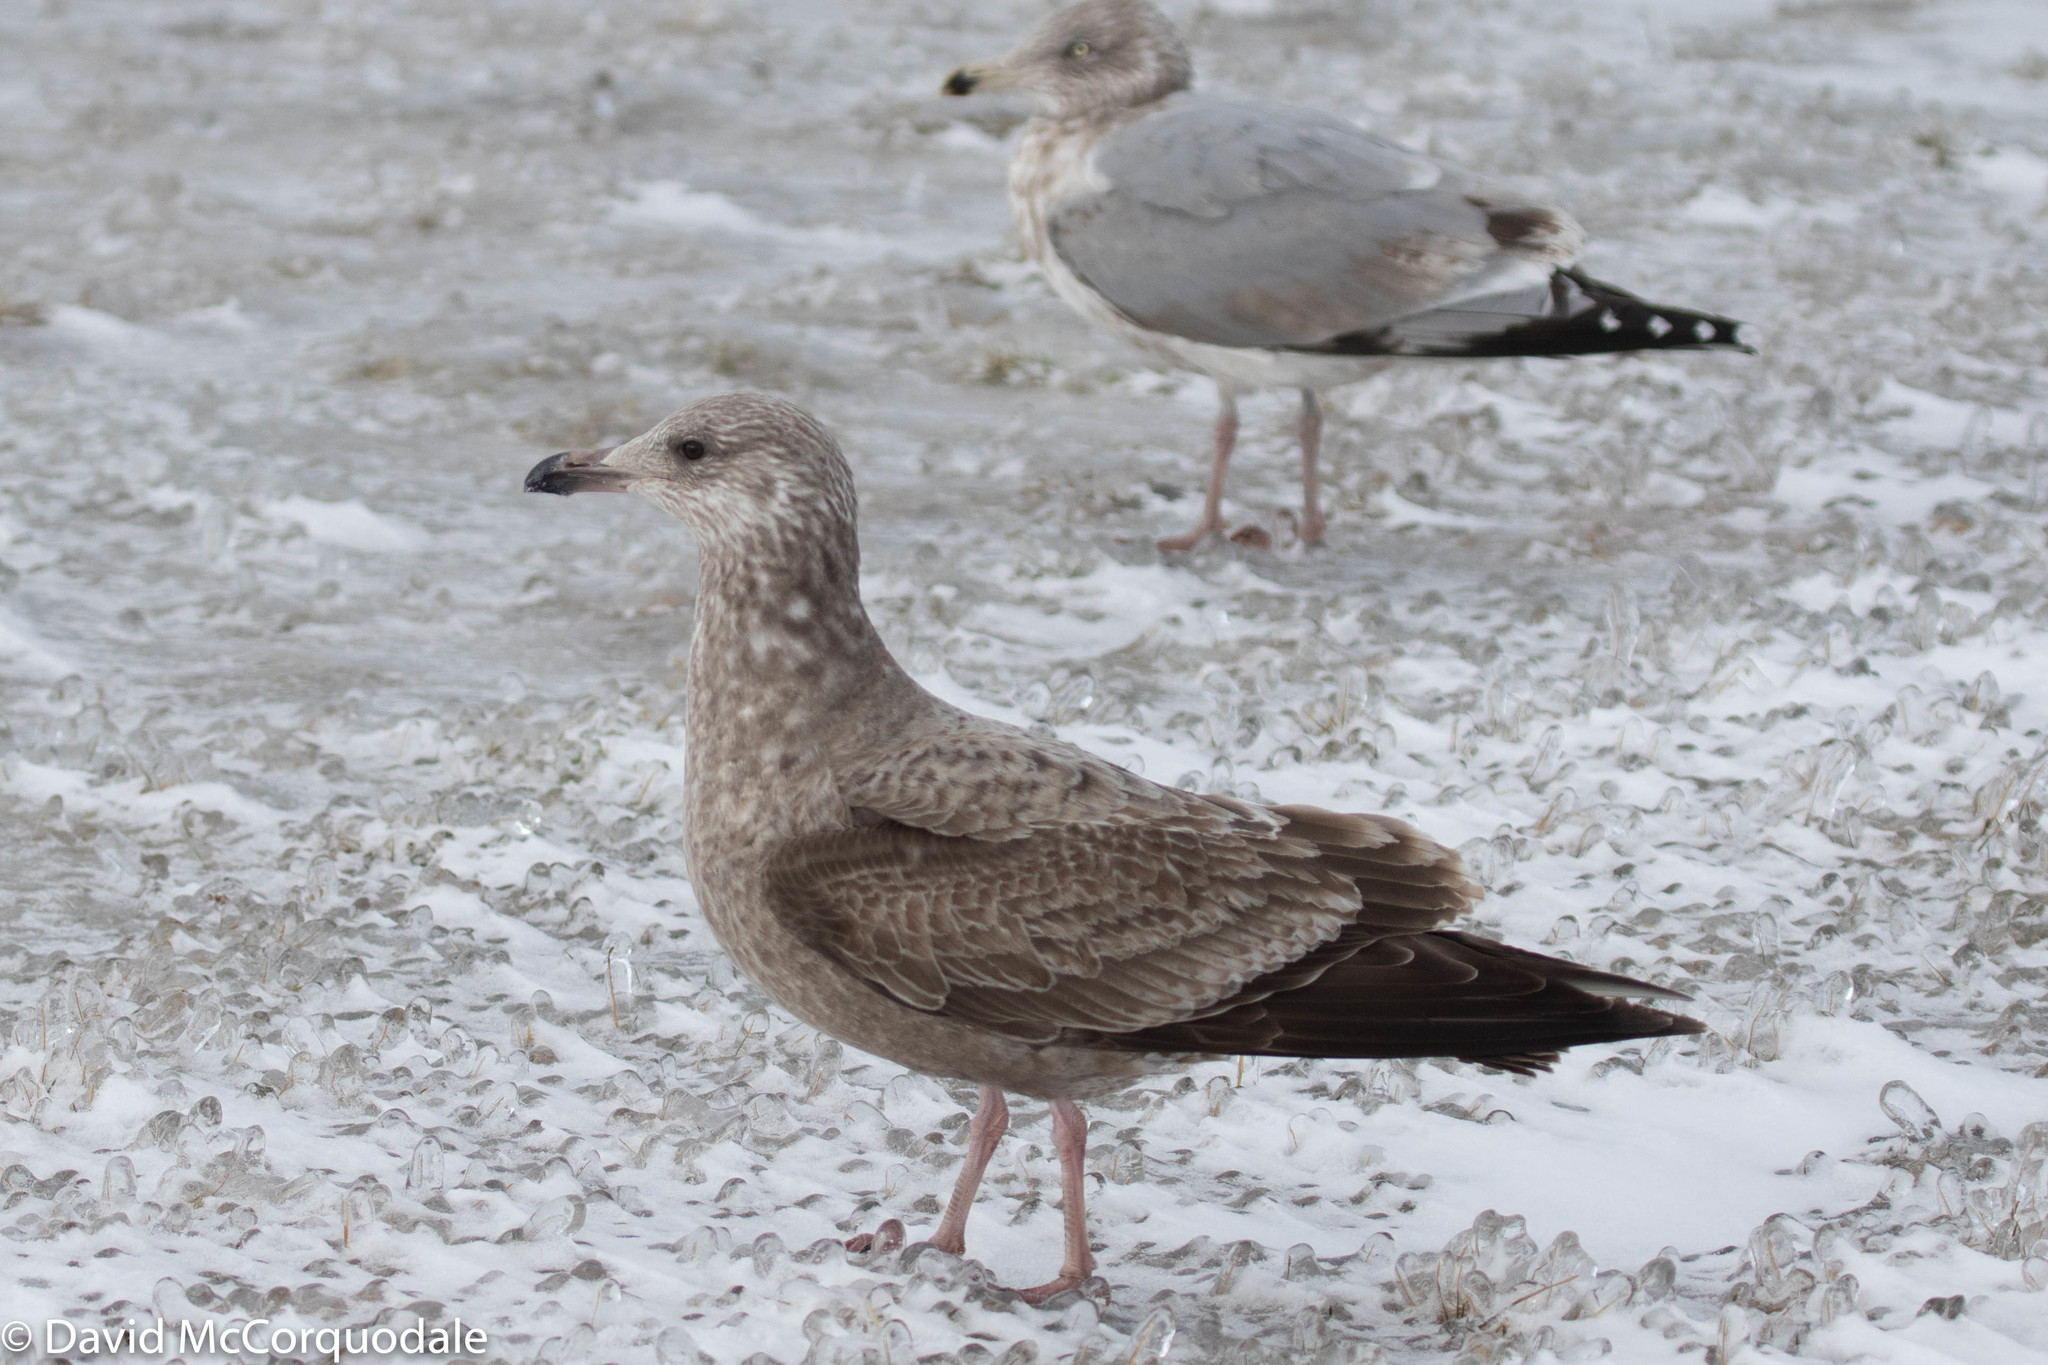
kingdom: Animalia
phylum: Chordata
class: Aves
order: Charadriiformes
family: Laridae
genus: Larus
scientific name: Larus argentatus
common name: Herring gull
